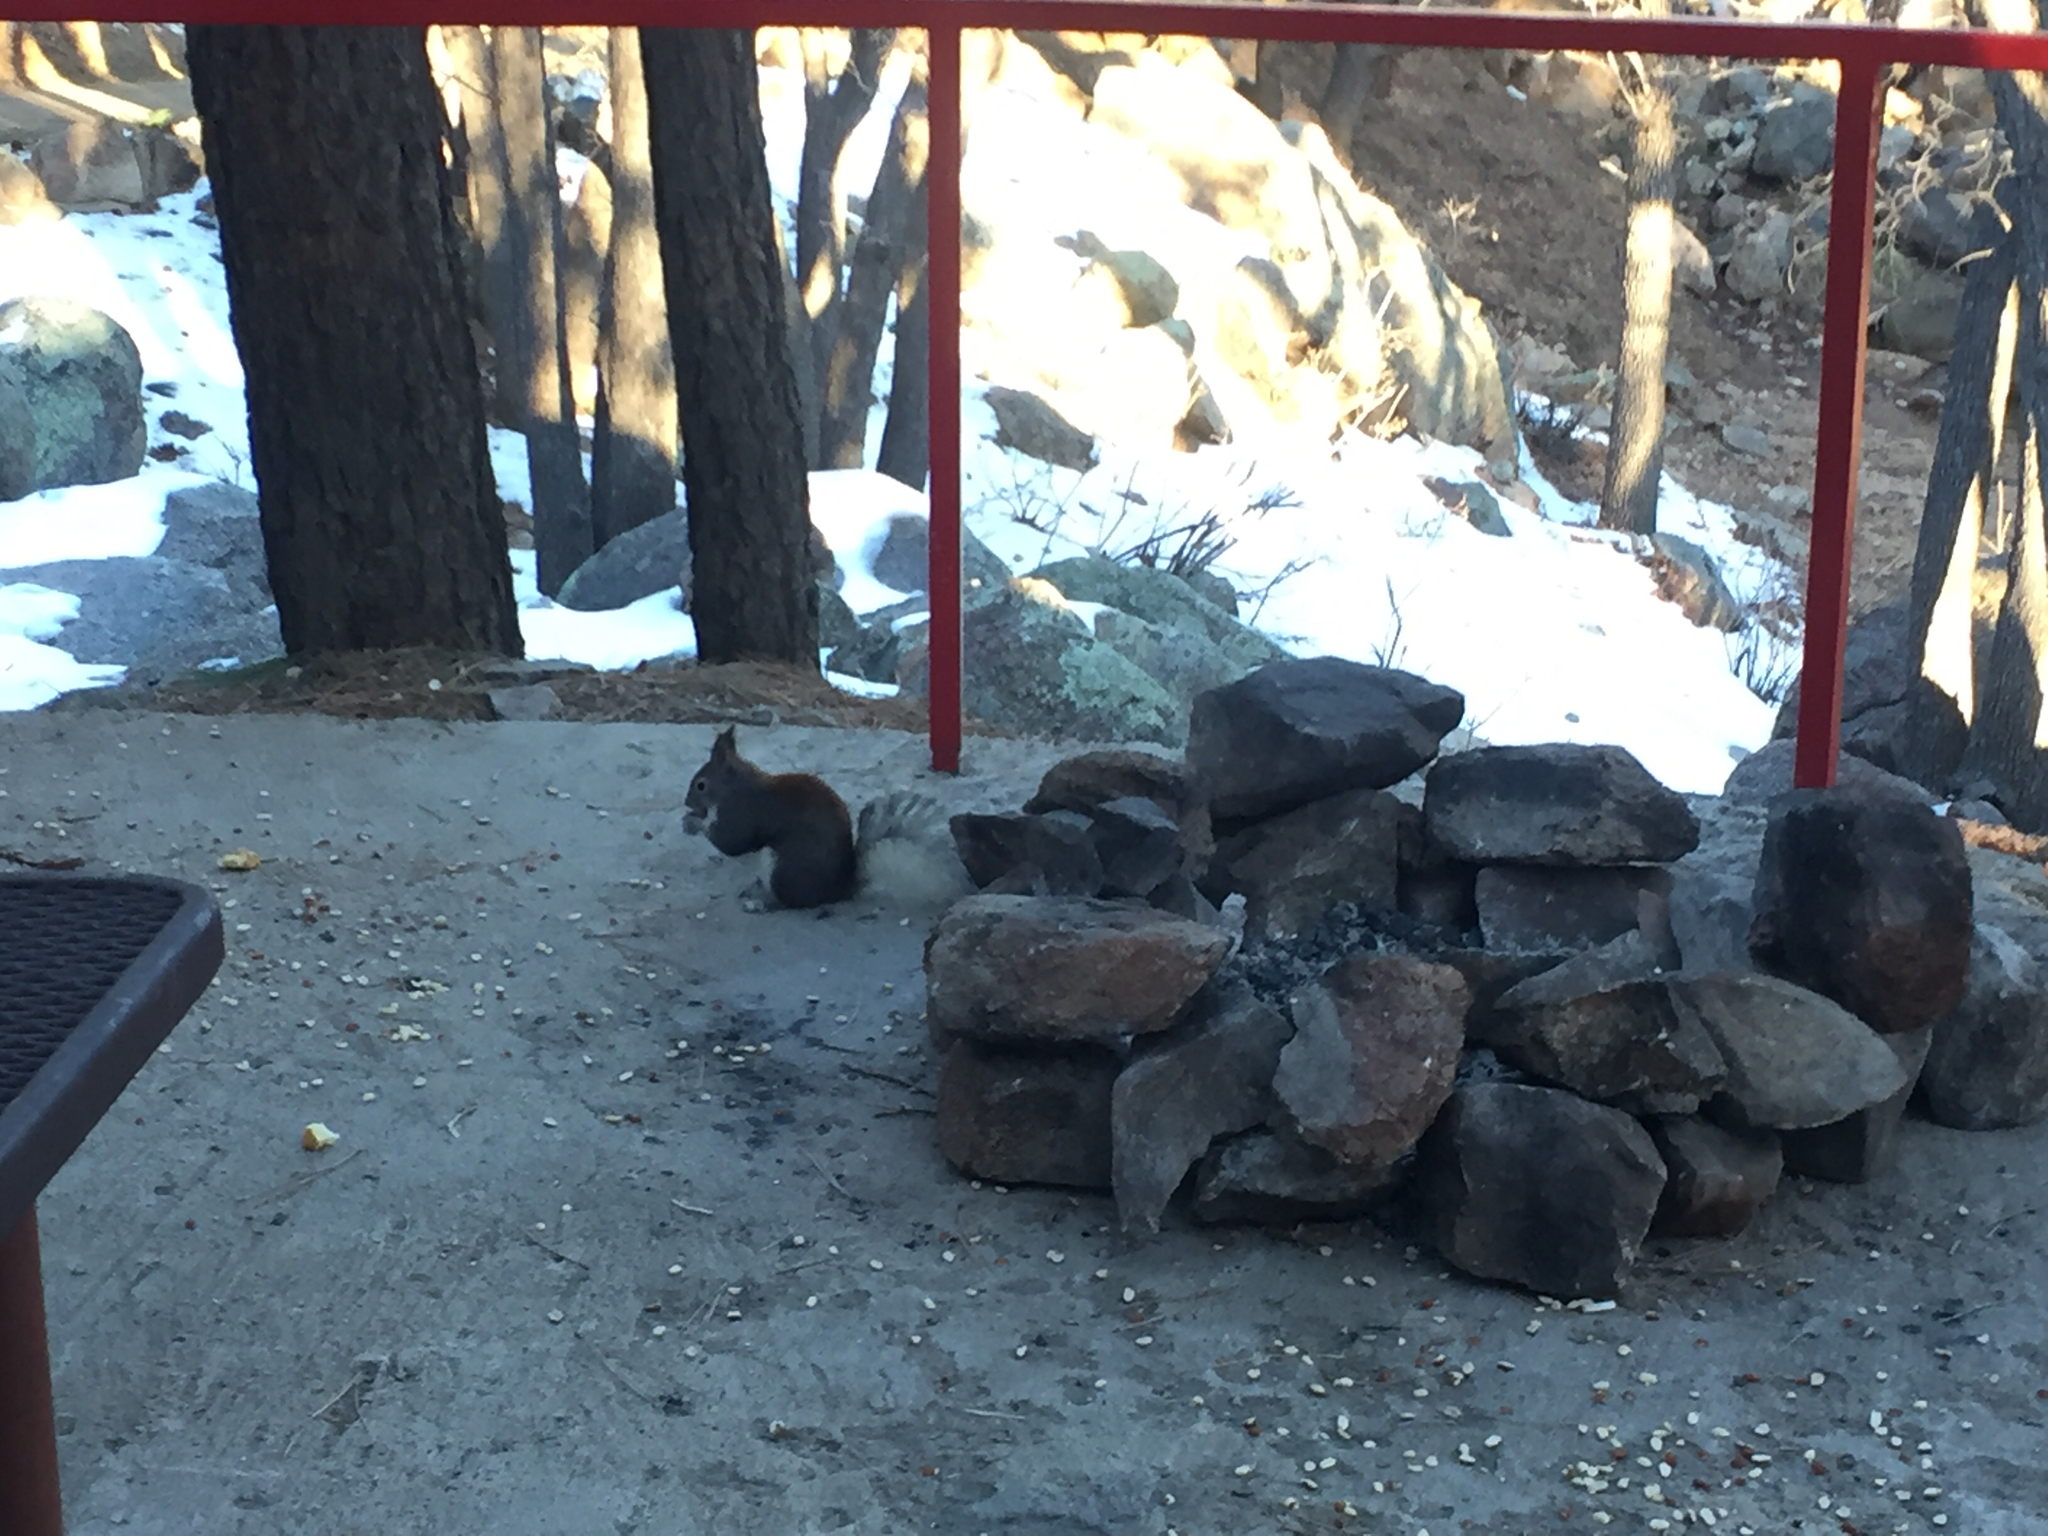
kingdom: Animalia
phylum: Chordata
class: Mammalia
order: Rodentia
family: Sciuridae
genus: Sciurus
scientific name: Sciurus aberti
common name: Abert's squirrel
